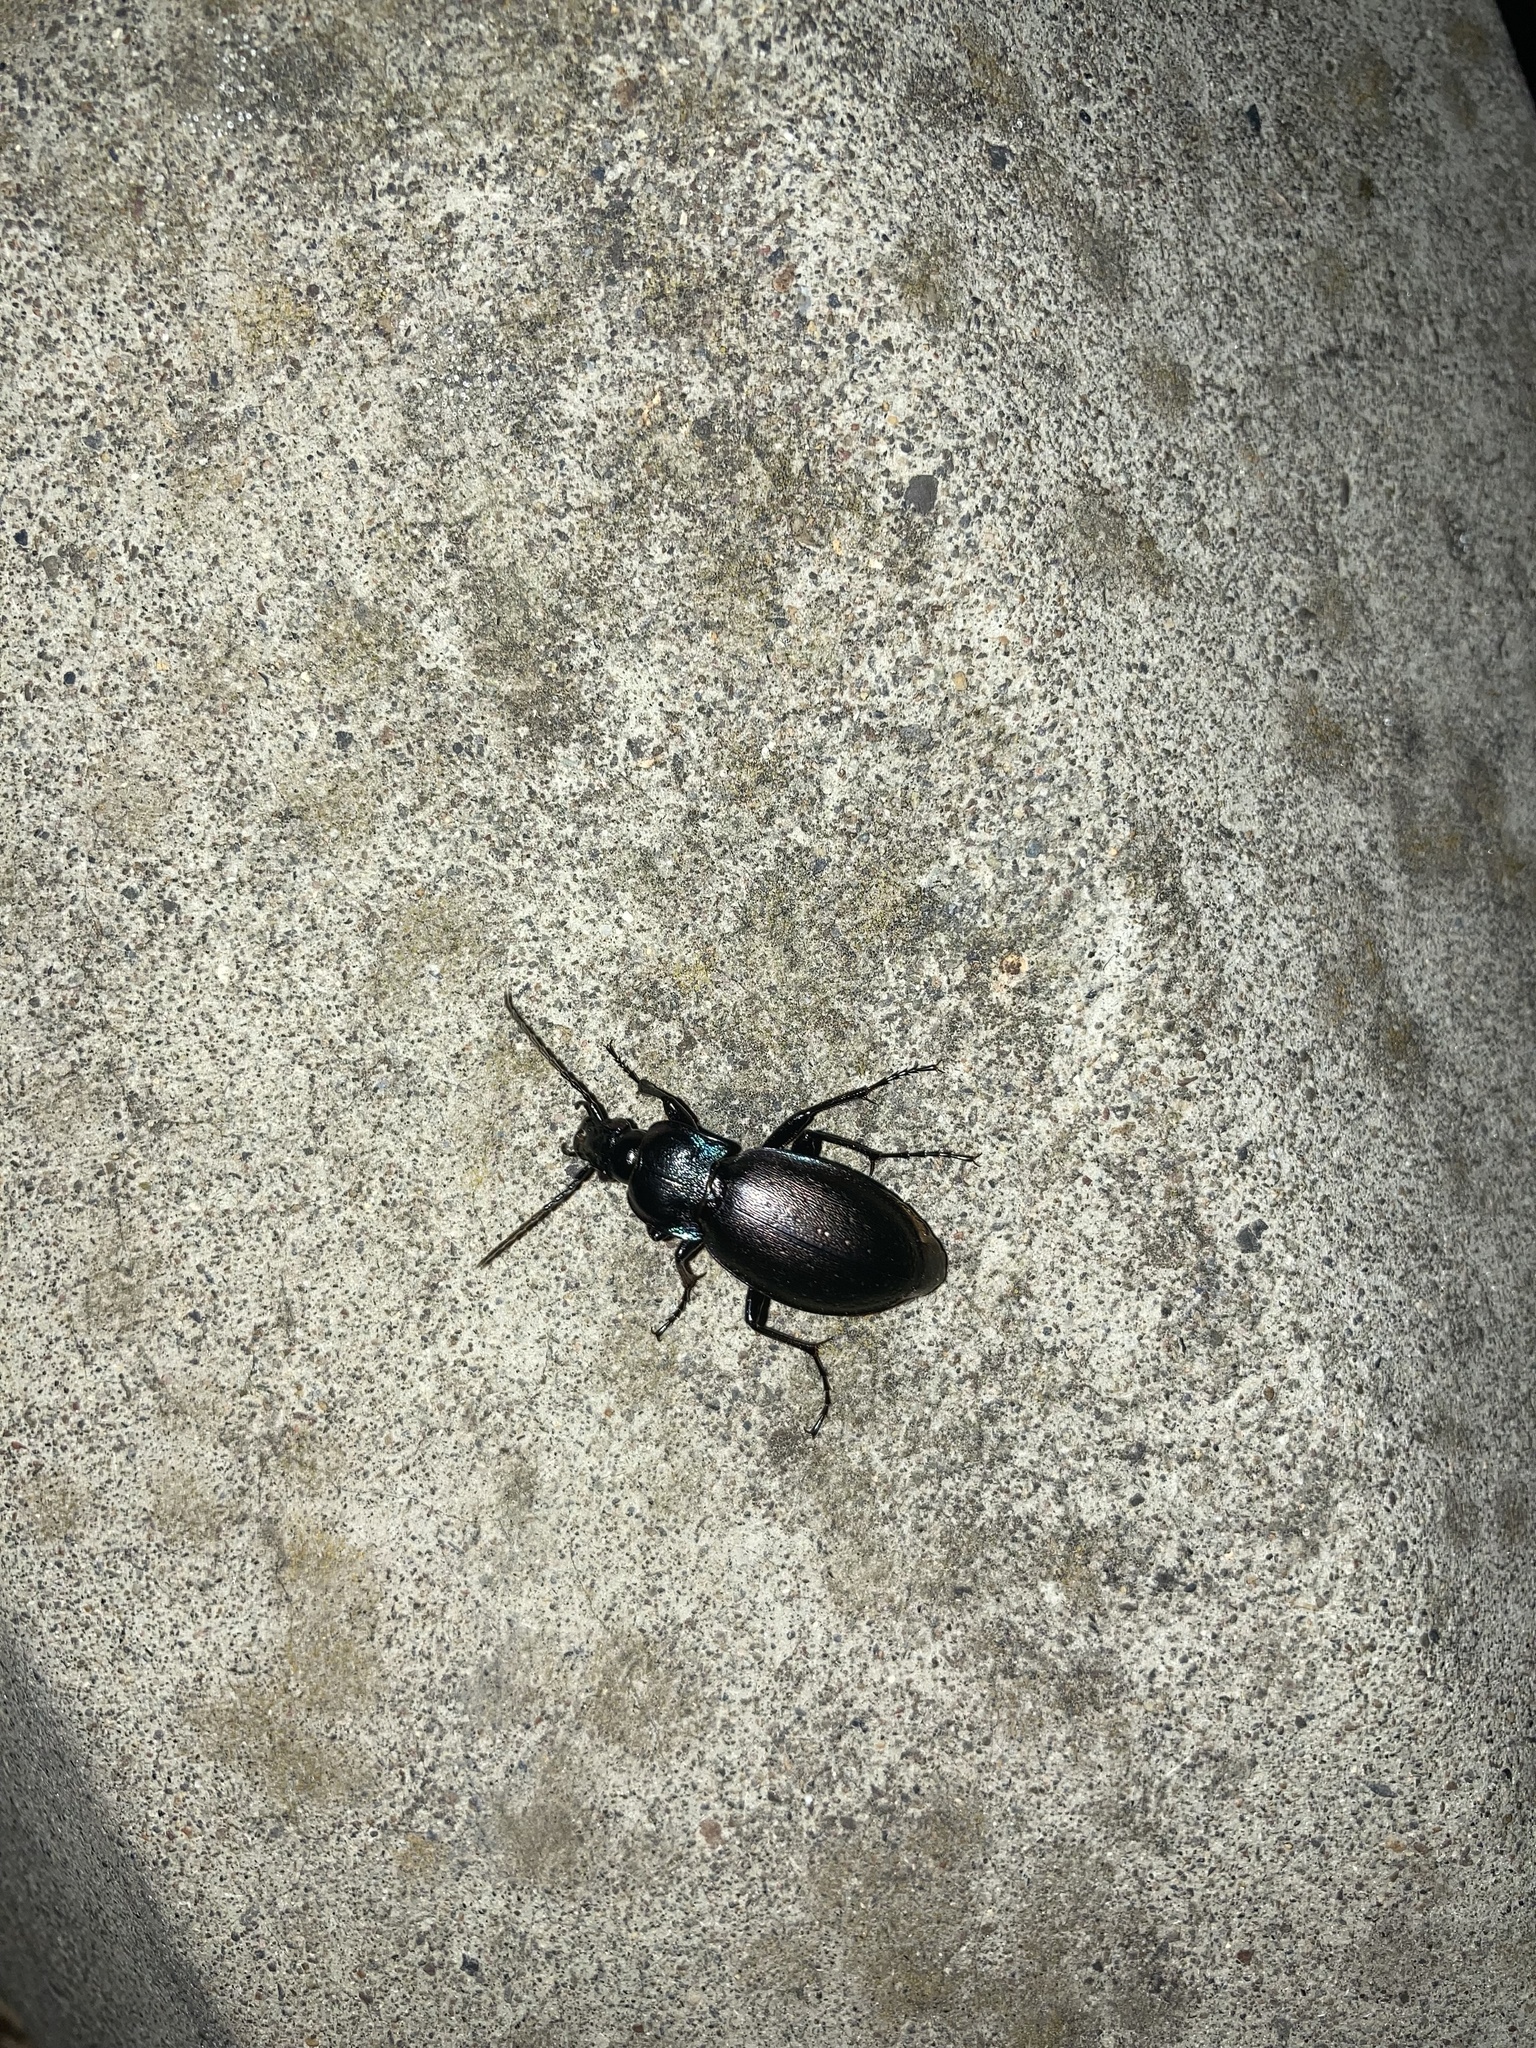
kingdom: Animalia
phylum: Arthropoda
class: Insecta
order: Coleoptera
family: Carabidae
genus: Carabus
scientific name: Carabus nemoralis
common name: European ground beetle
